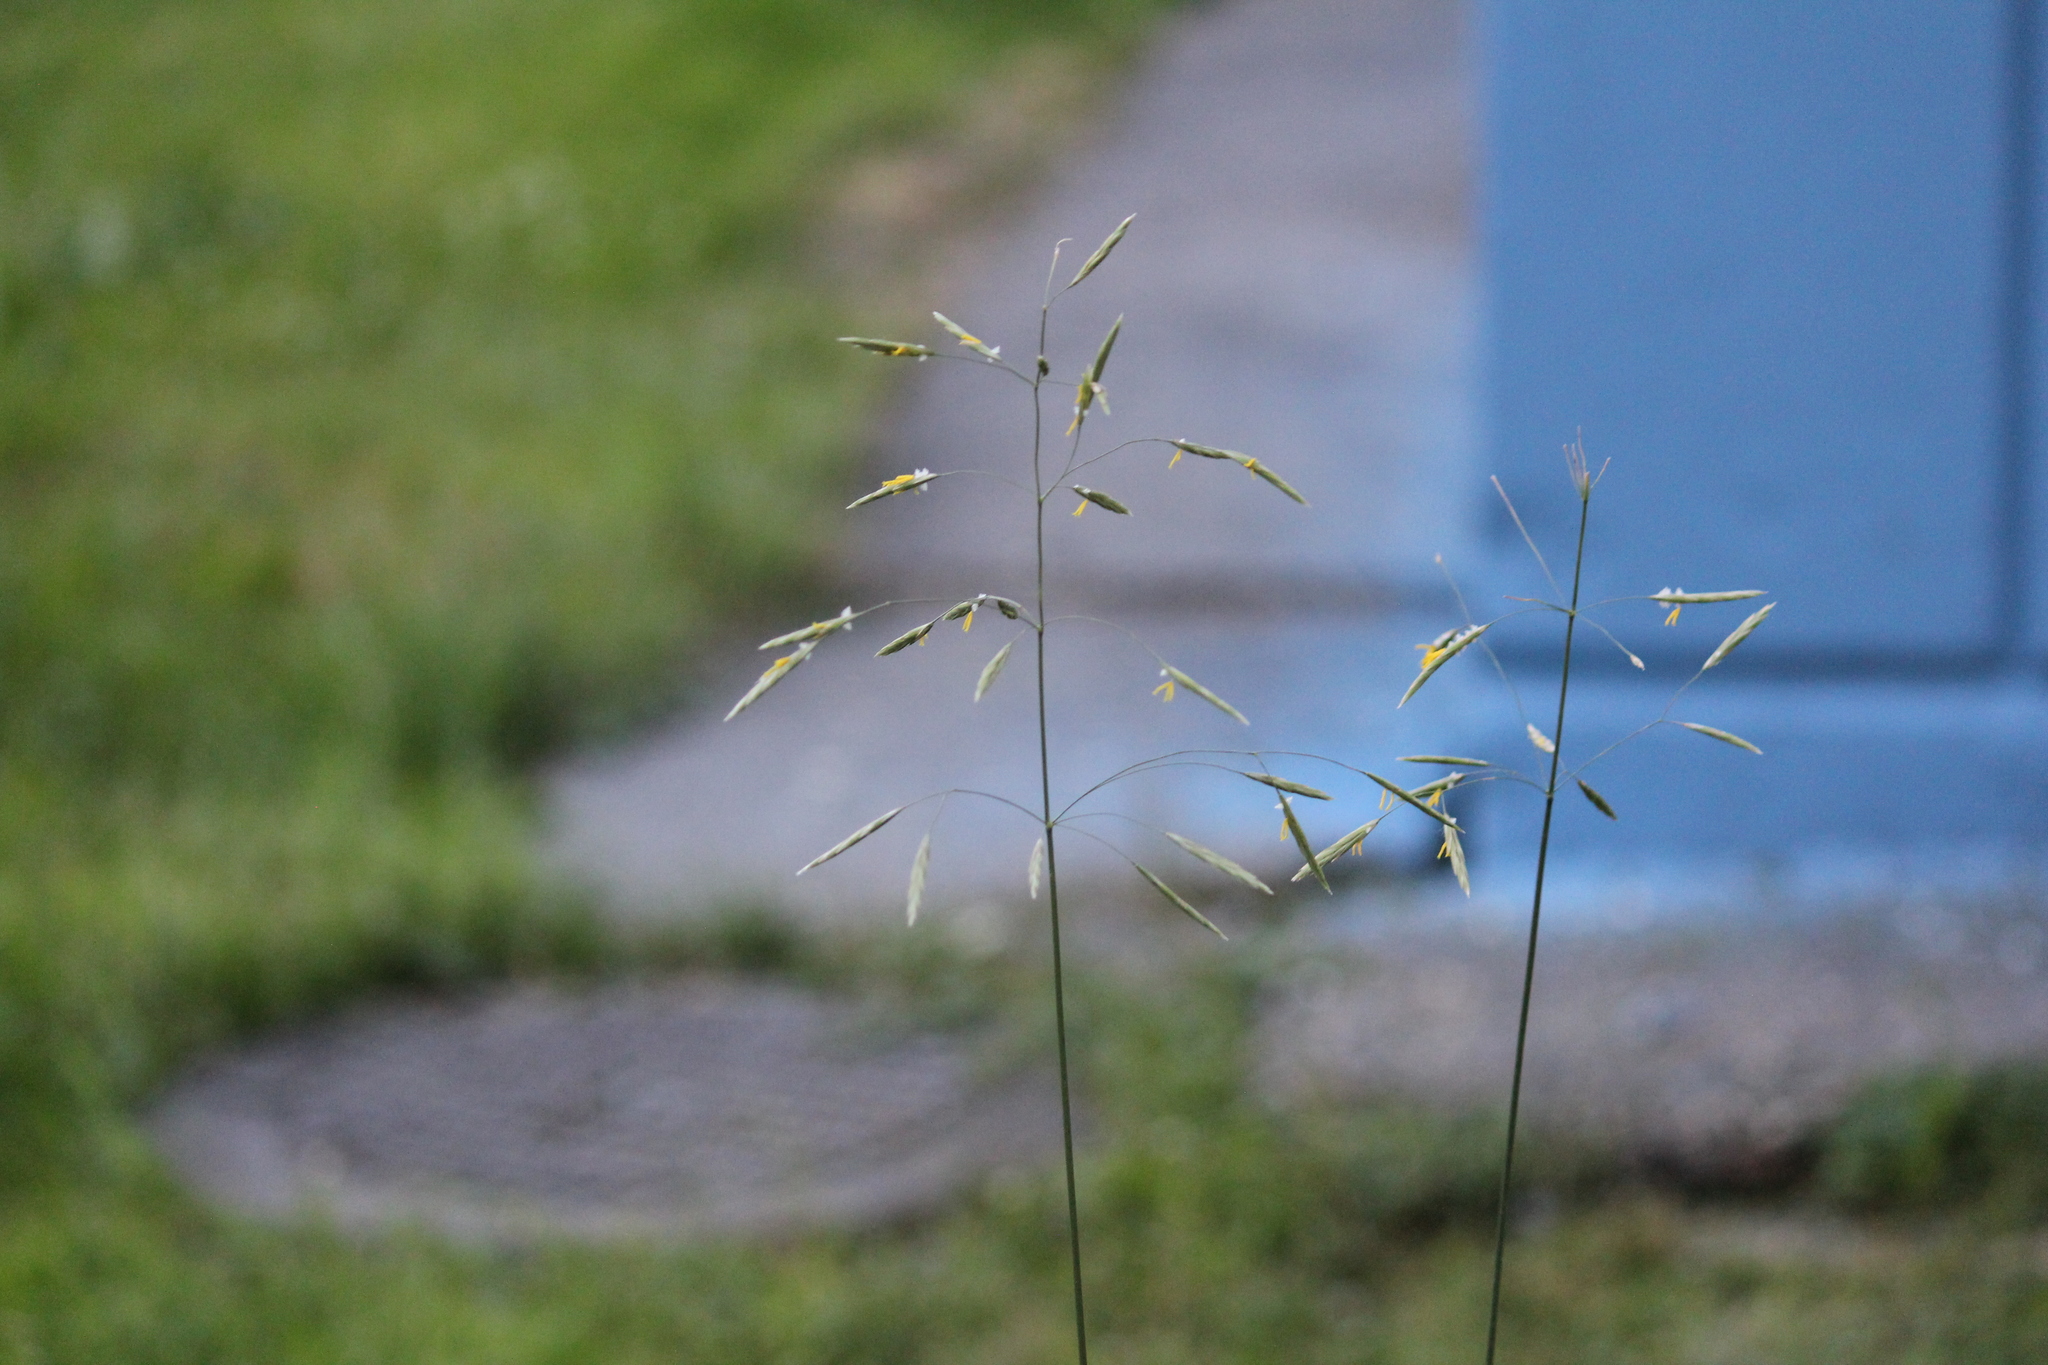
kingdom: Plantae
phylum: Tracheophyta
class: Liliopsida
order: Poales
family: Poaceae
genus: Bromus
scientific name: Bromus inermis
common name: Smooth brome
